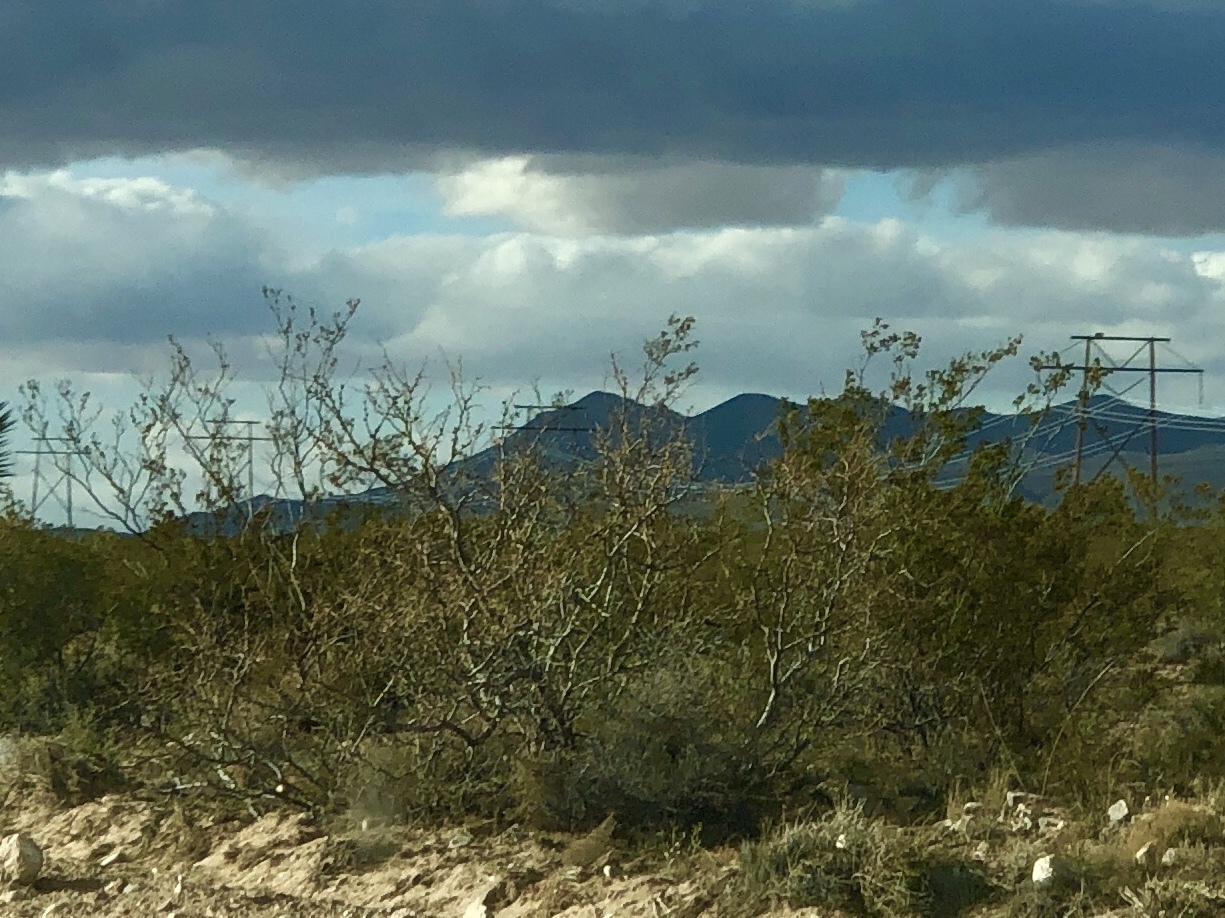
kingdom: Plantae
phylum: Tracheophyta
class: Magnoliopsida
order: Zygophyllales
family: Zygophyllaceae
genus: Larrea
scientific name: Larrea tridentata
